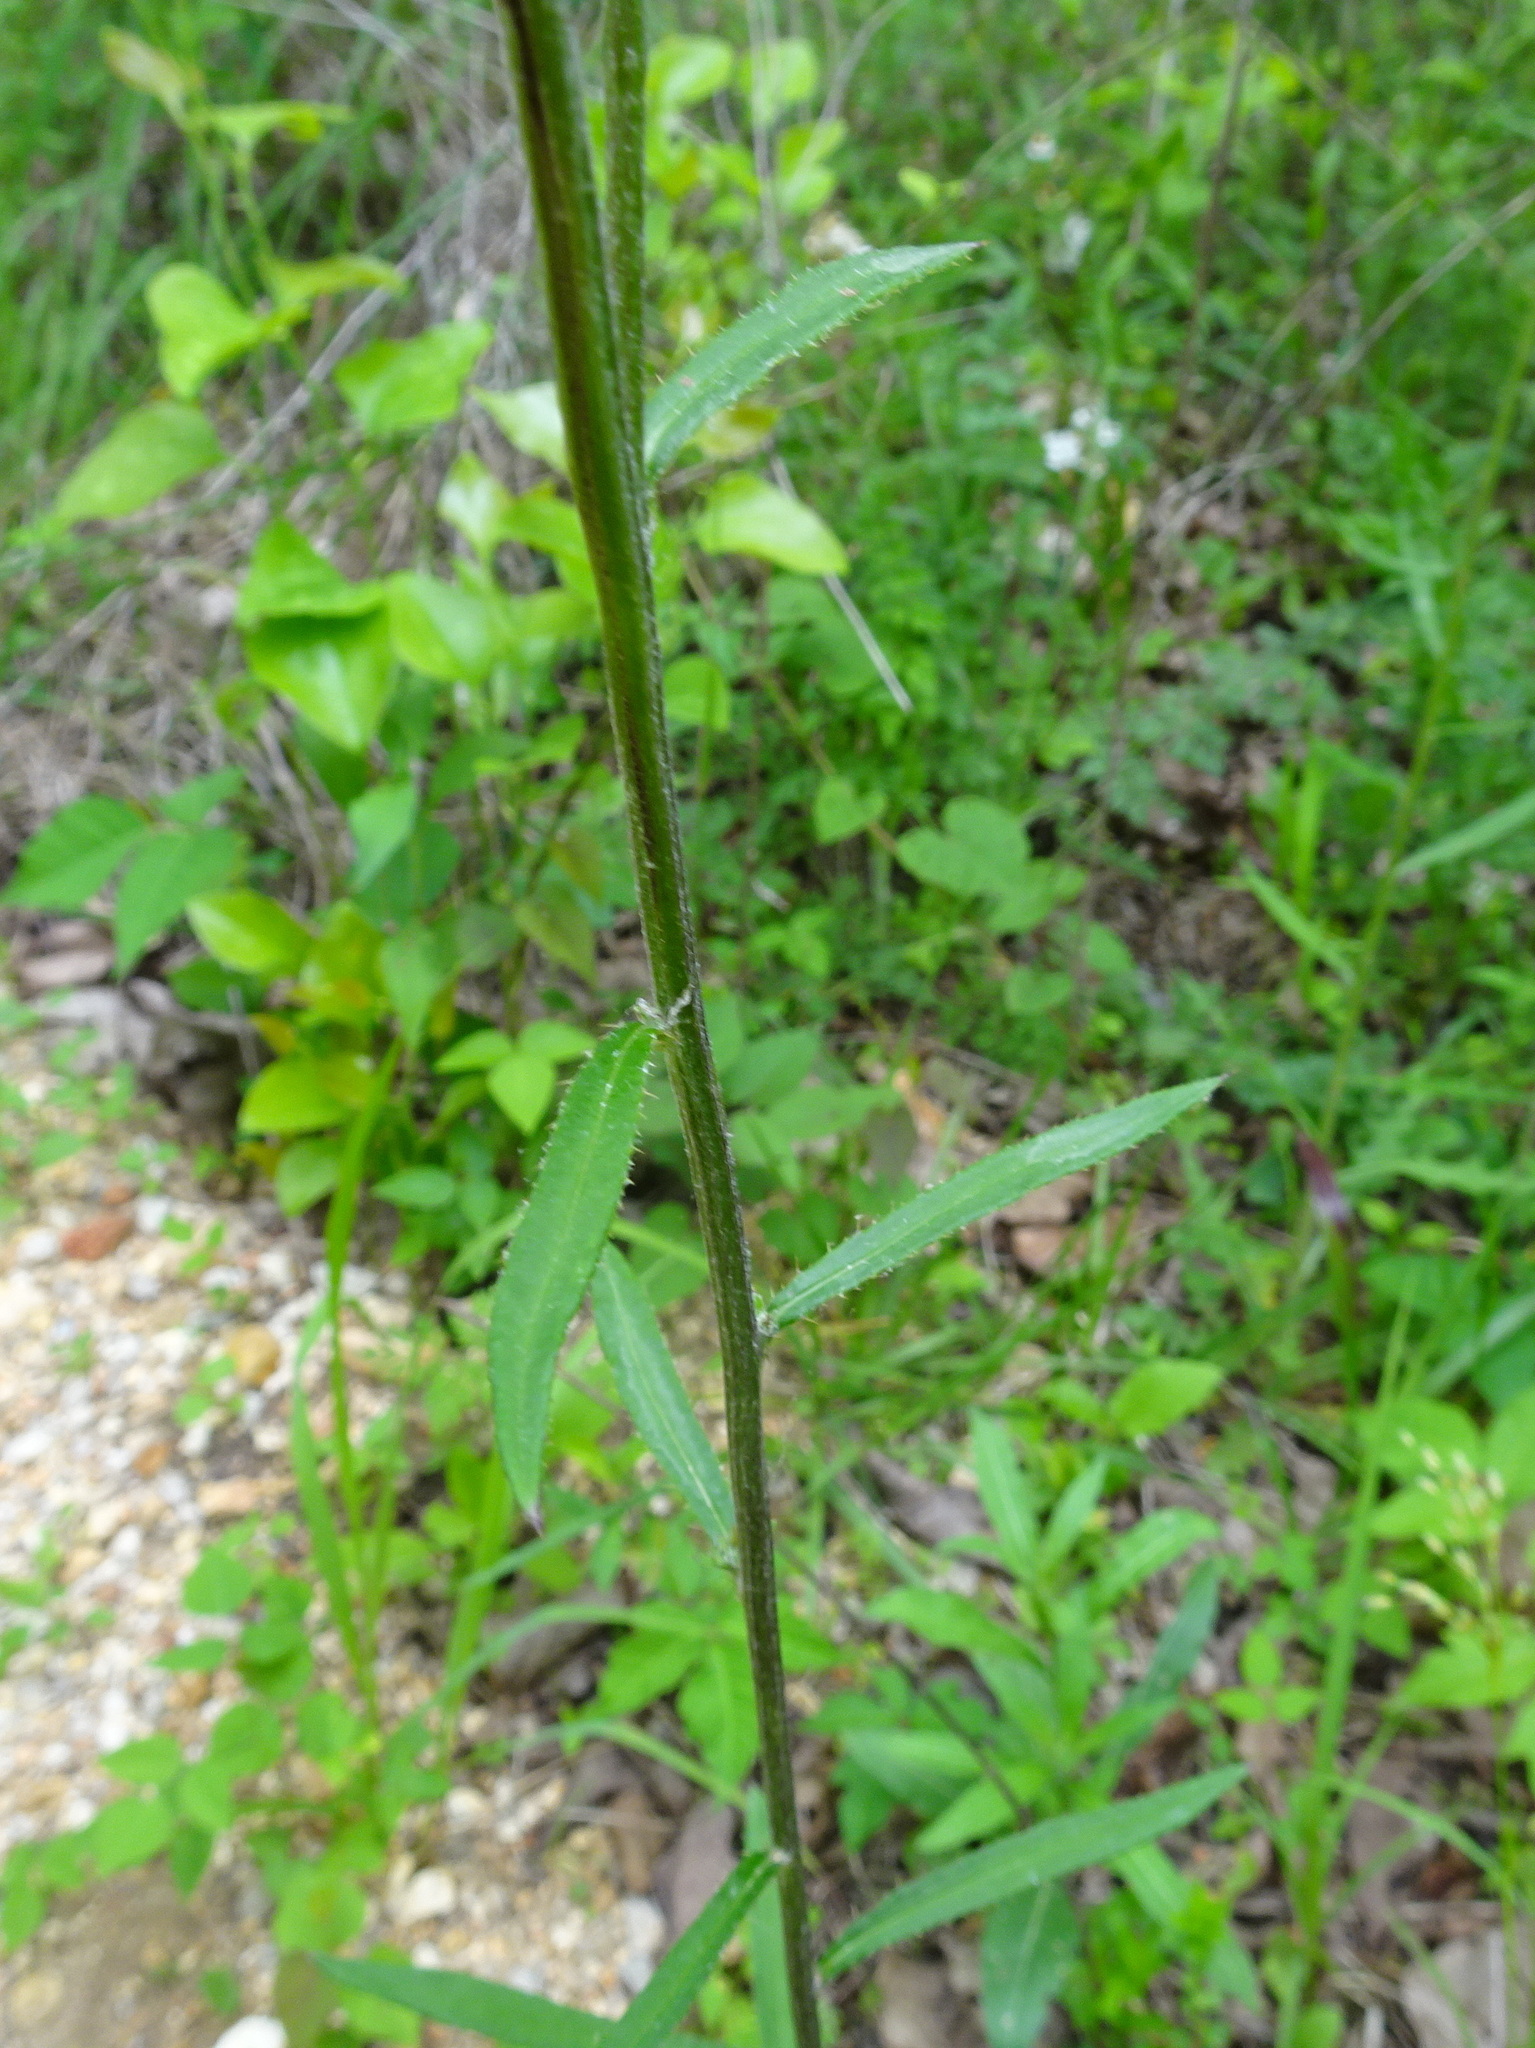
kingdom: Plantae
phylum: Tracheophyta
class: Magnoliopsida
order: Asterales
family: Asteraceae
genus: Cirsium
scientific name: Cirsium carolinianum
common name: Carolina thistle
